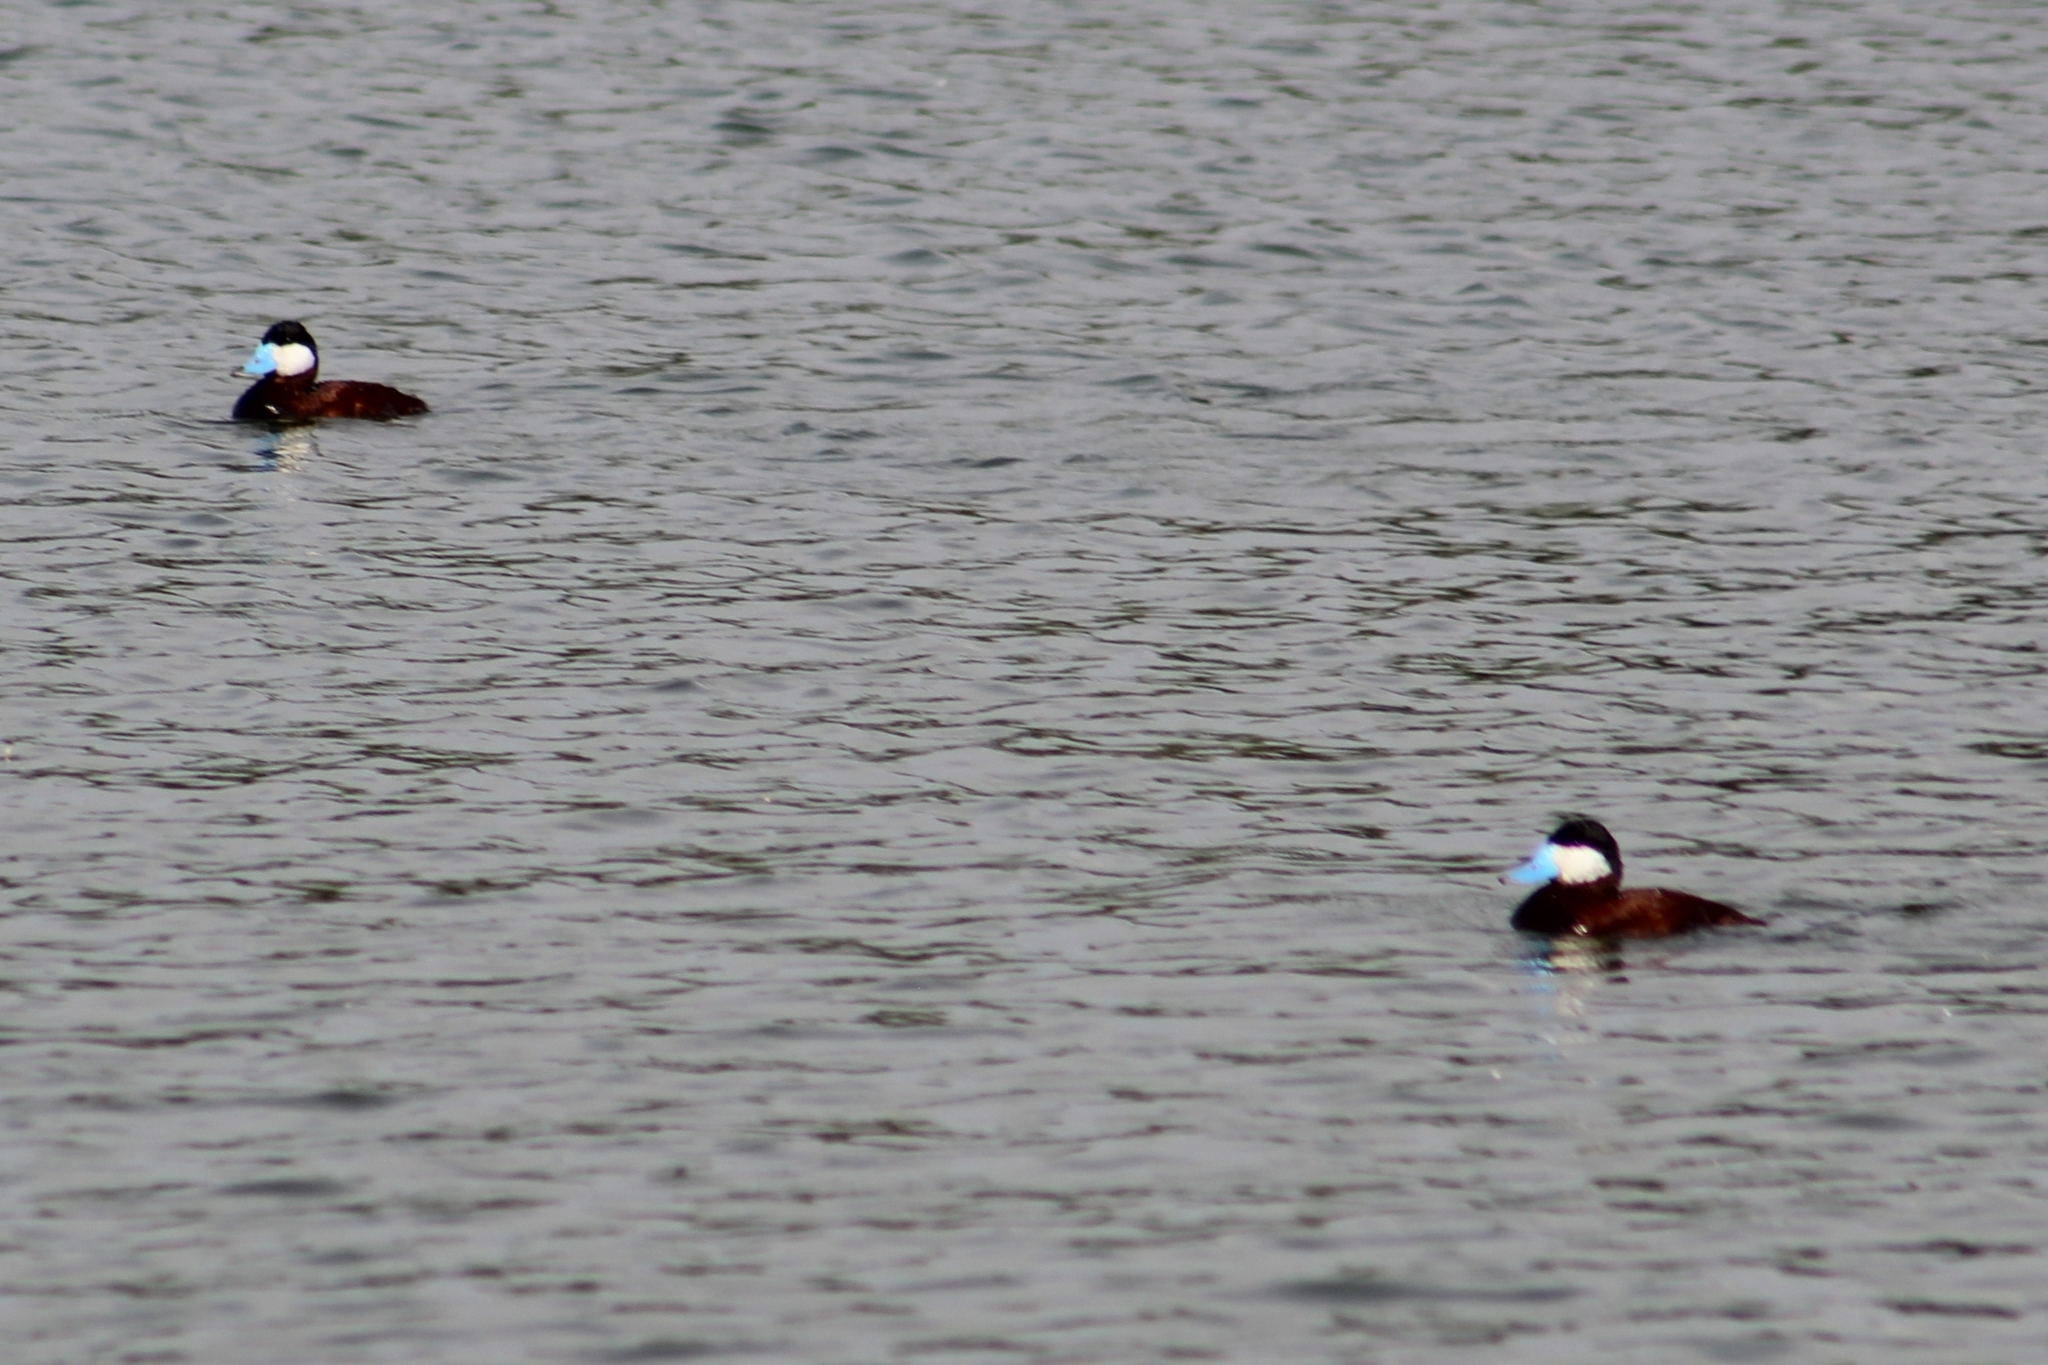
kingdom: Animalia
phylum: Chordata
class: Aves
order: Anseriformes
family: Anatidae
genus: Oxyura
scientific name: Oxyura jamaicensis
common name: Ruddy duck
